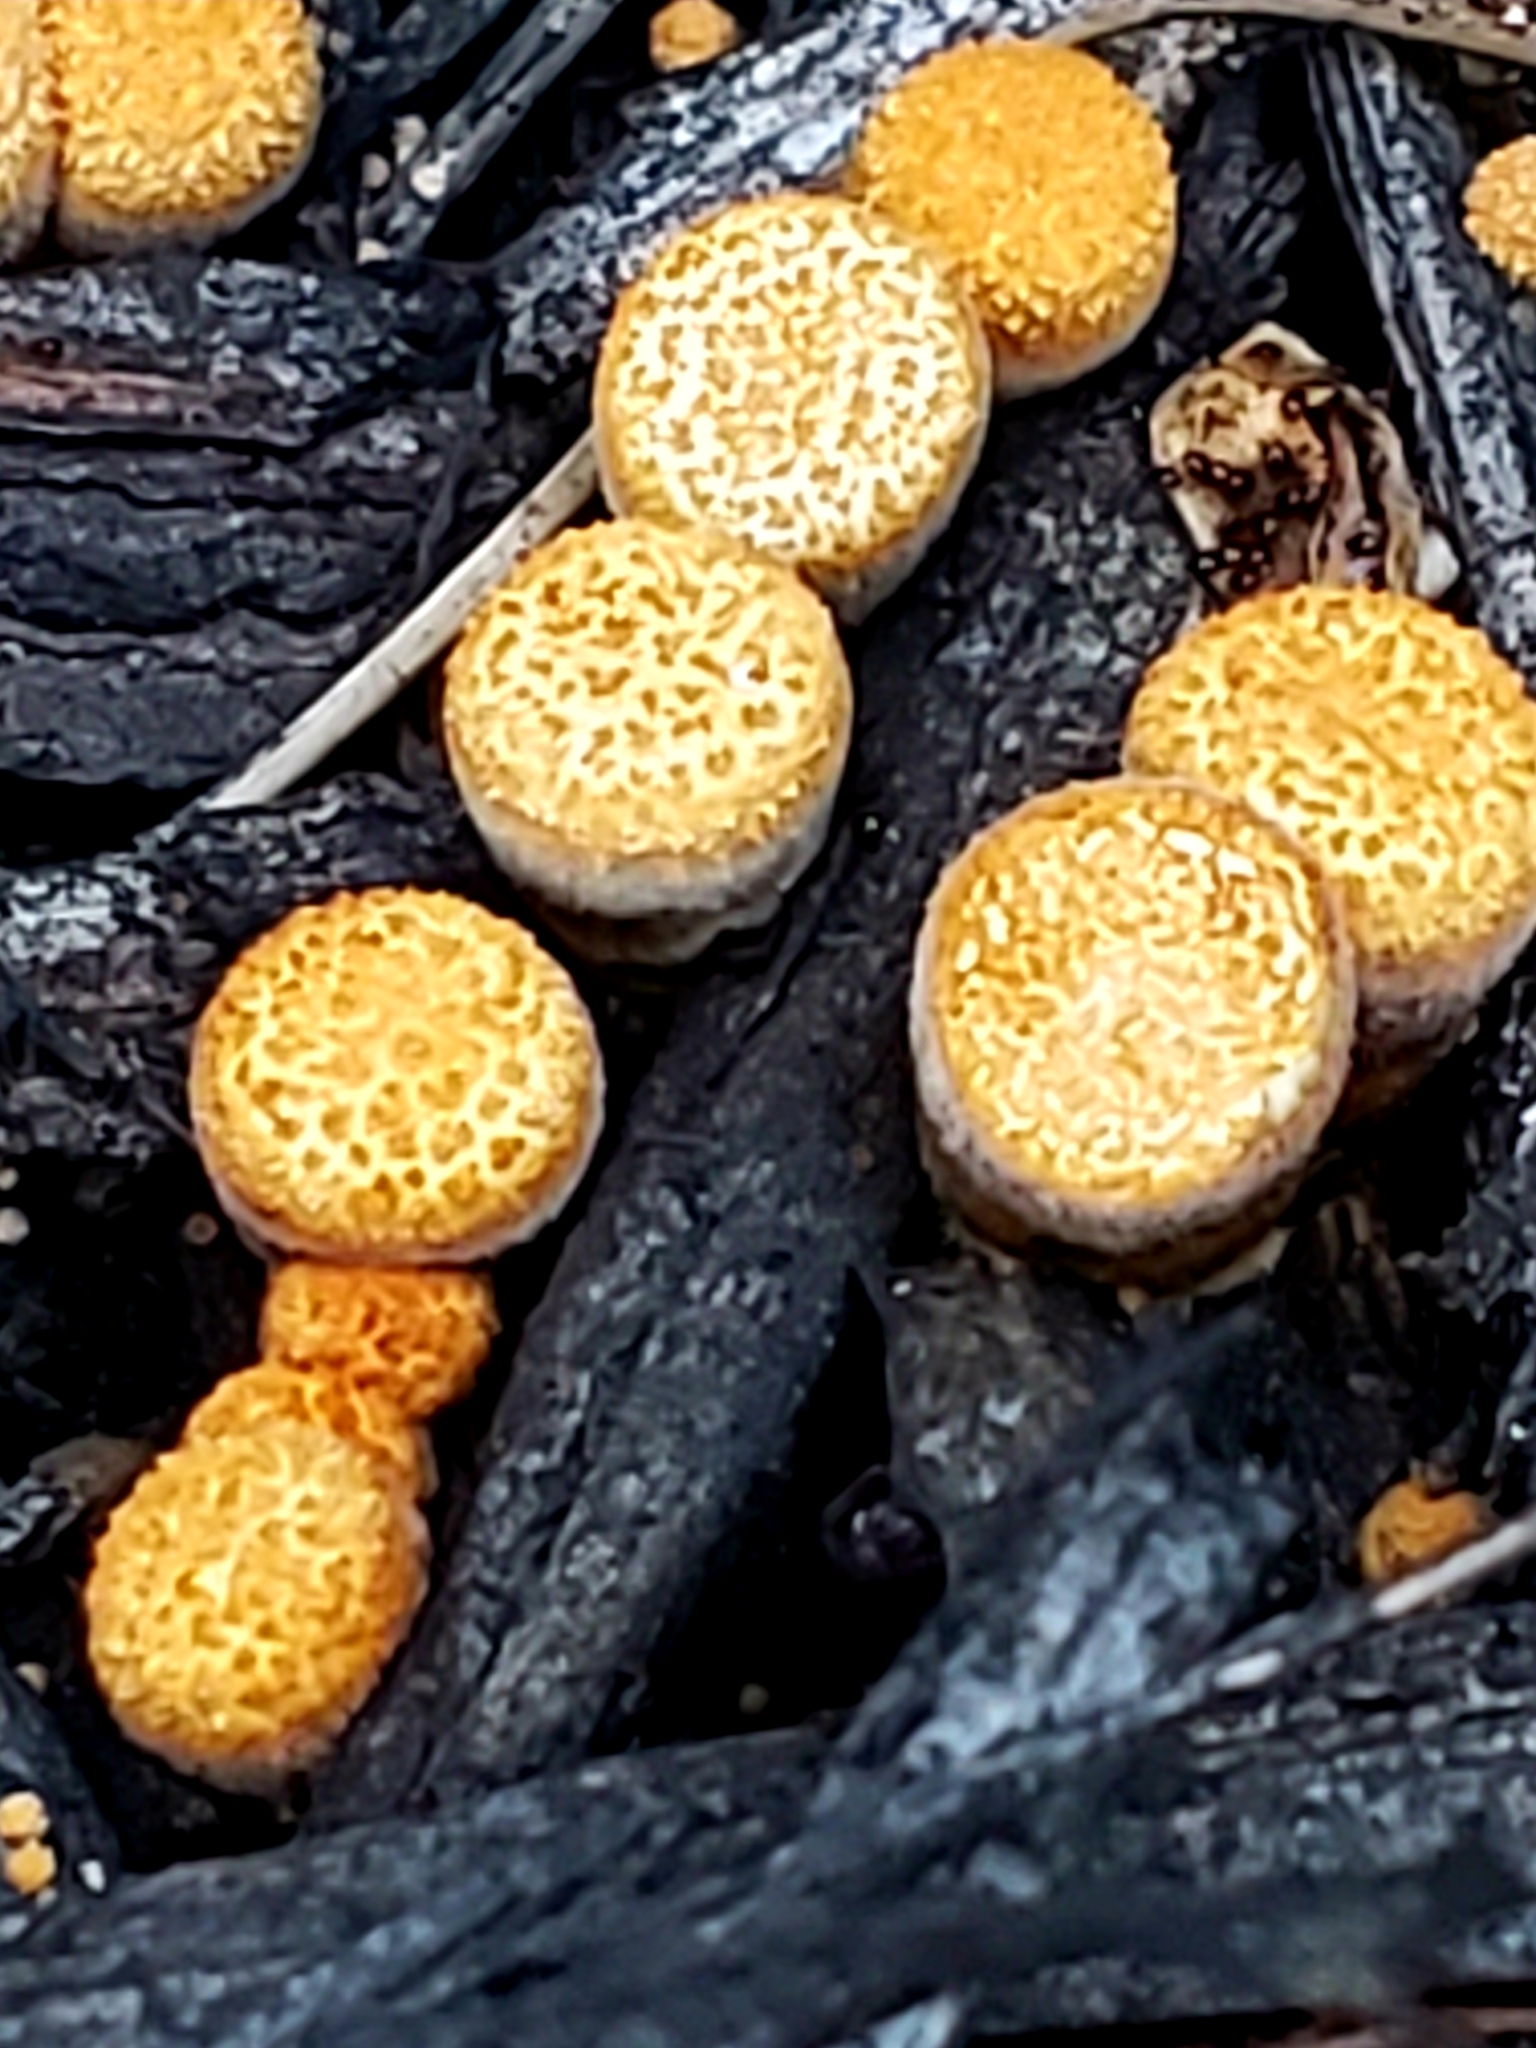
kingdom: Fungi
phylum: Basidiomycota
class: Agaricomycetes
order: Agaricales
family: Nidulariaceae
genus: Crucibulum
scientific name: Crucibulum laeve
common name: Common bird's nest
